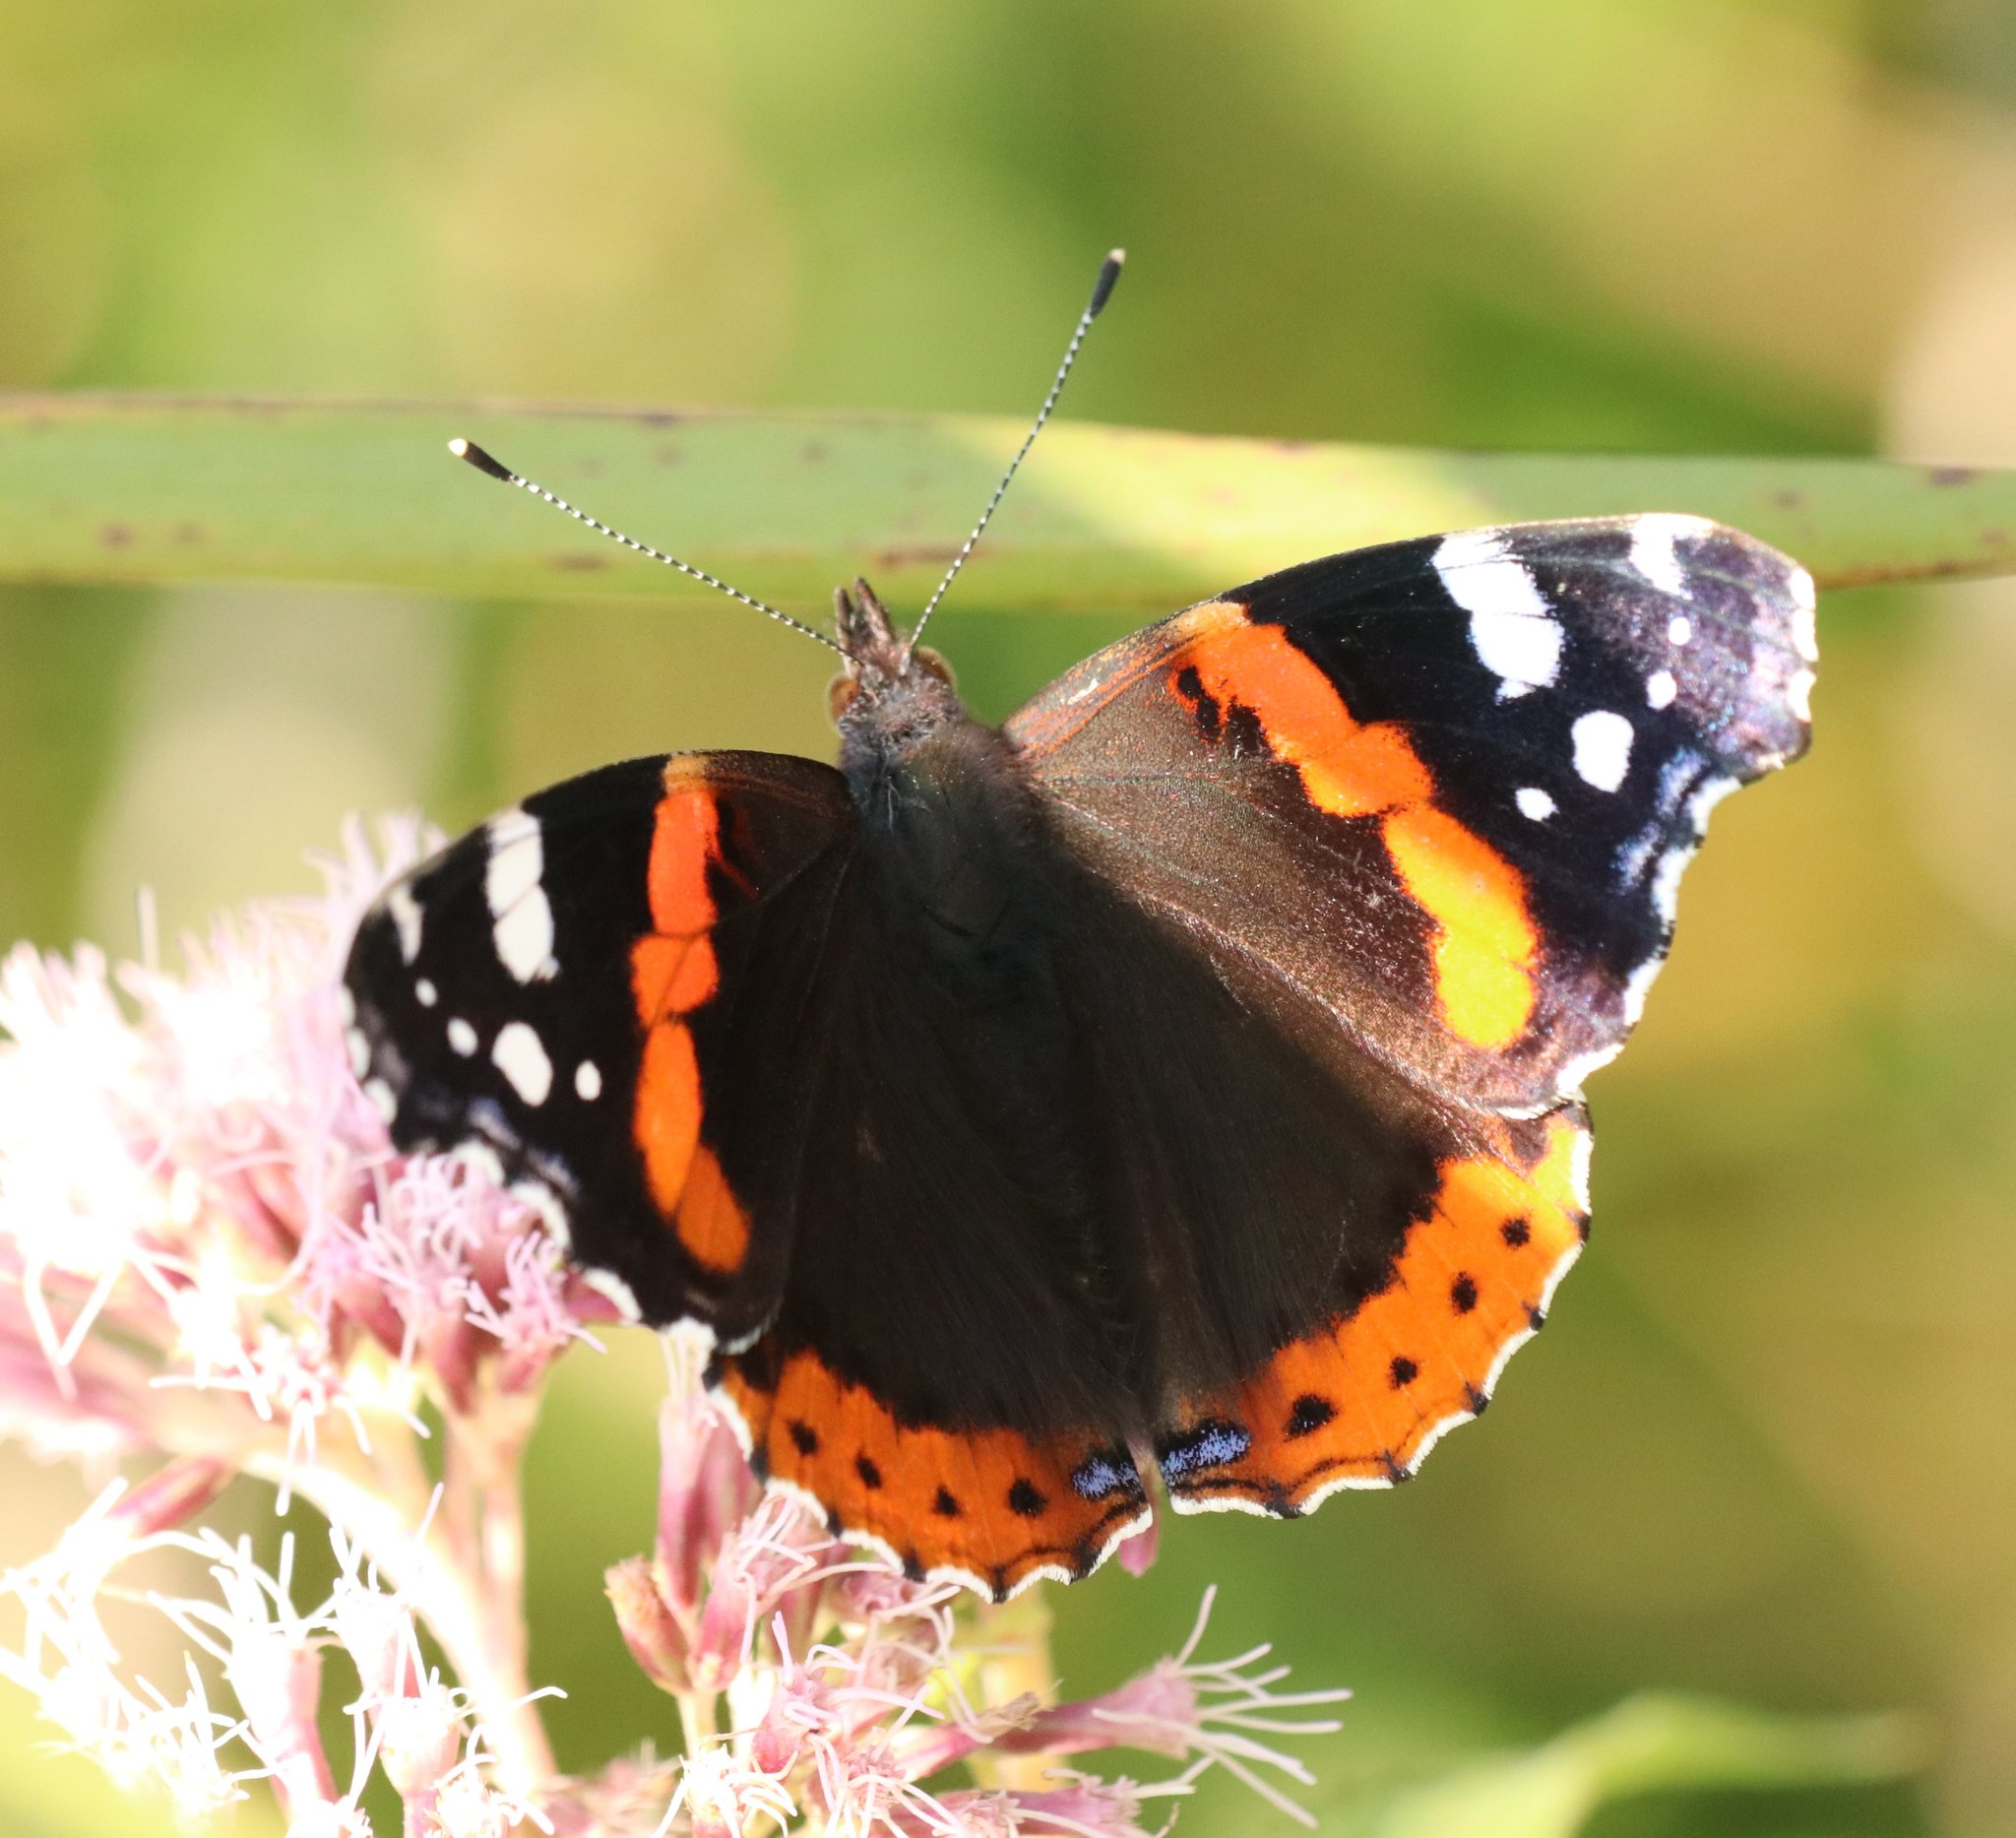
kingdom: Animalia
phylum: Arthropoda
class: Insecta
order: Lepidoptera
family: Nymphalidae
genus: Vanessa
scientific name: Vanessa atalanta
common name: Red admiral
